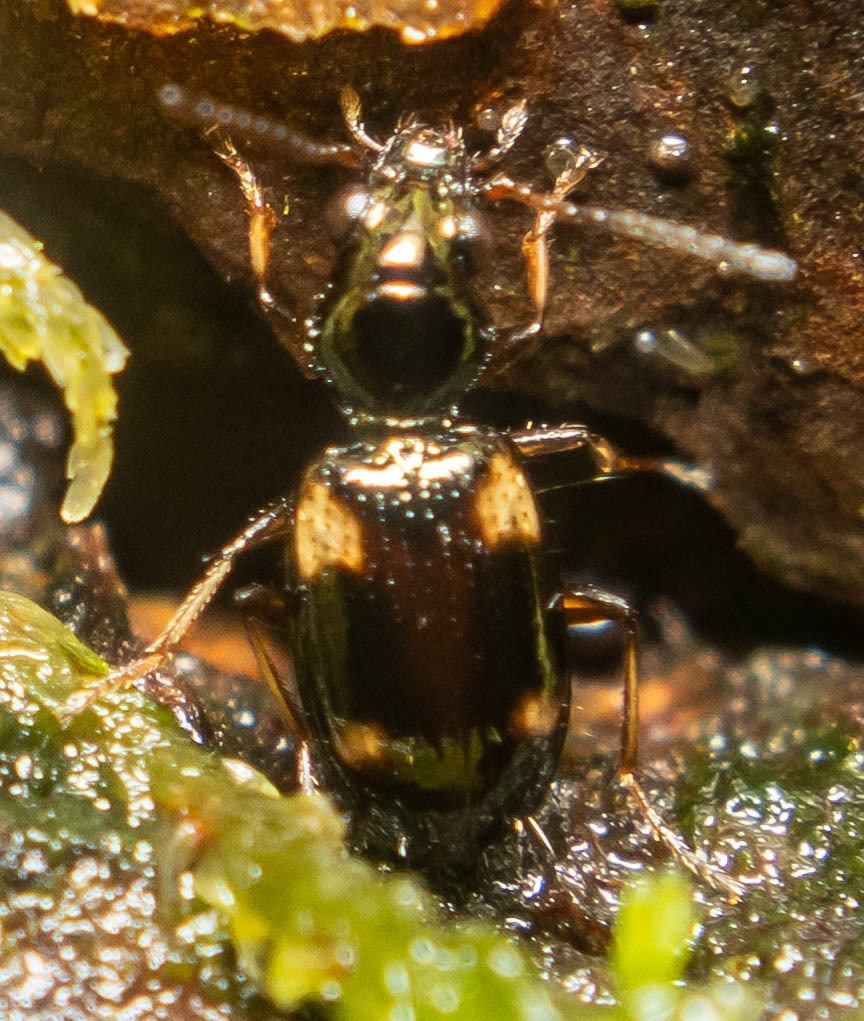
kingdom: Animalia
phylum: Arthropoda
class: Insecta
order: Coleoptera
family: Carabidae
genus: Bembidion
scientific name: Bembidion quadrimaculatum
